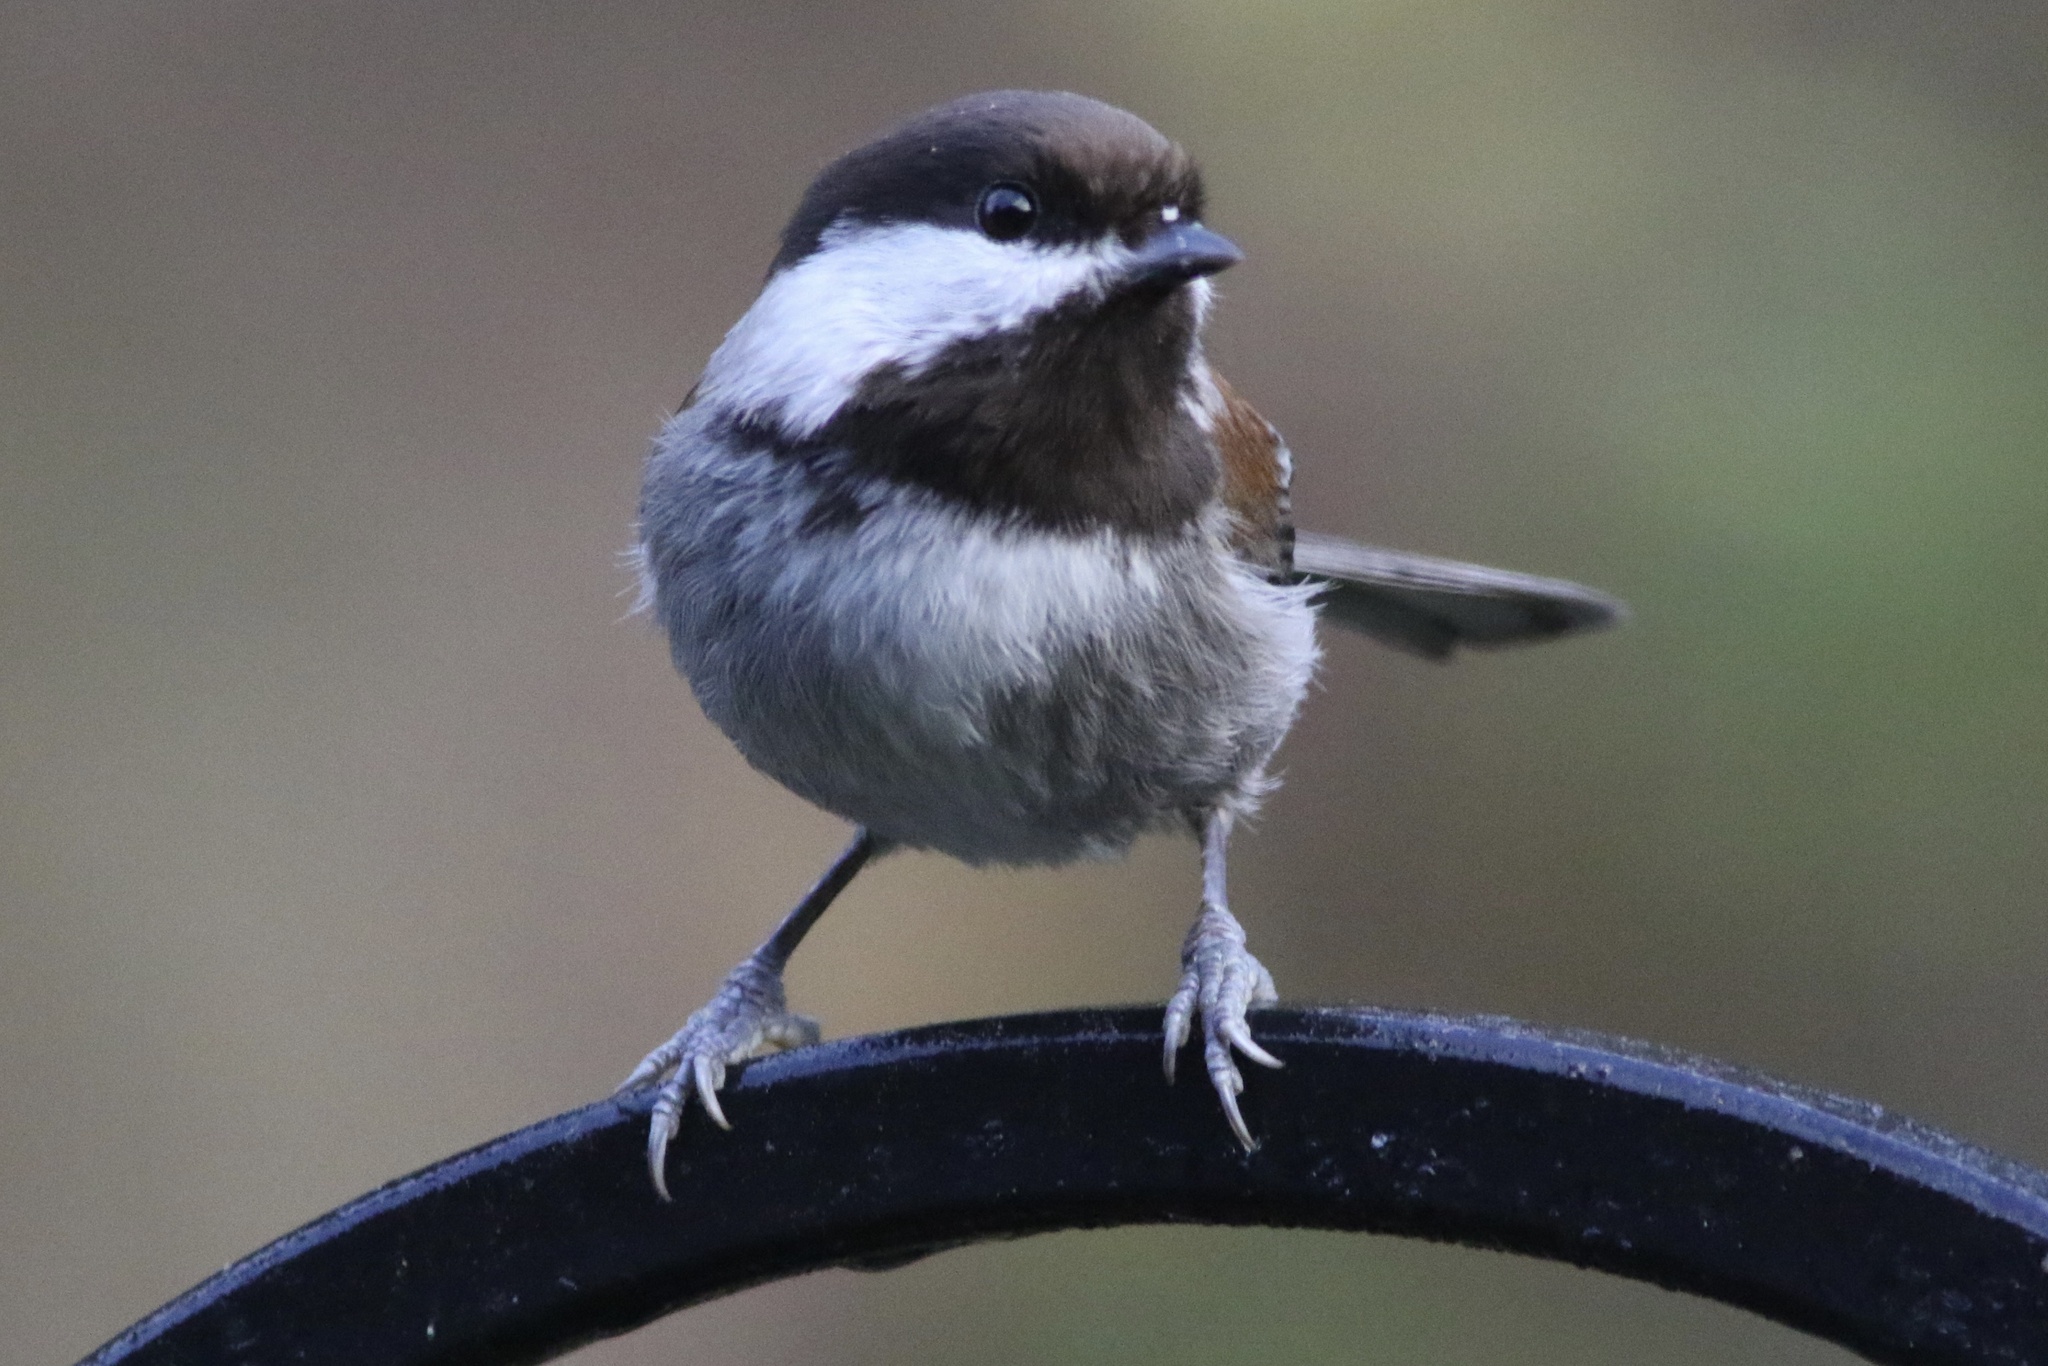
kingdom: Animalia
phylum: Chordata
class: Aves
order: Passeriformes
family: Paridae
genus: Poecile
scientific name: Poecile rufescens
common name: Chestnut-backed chickadee
